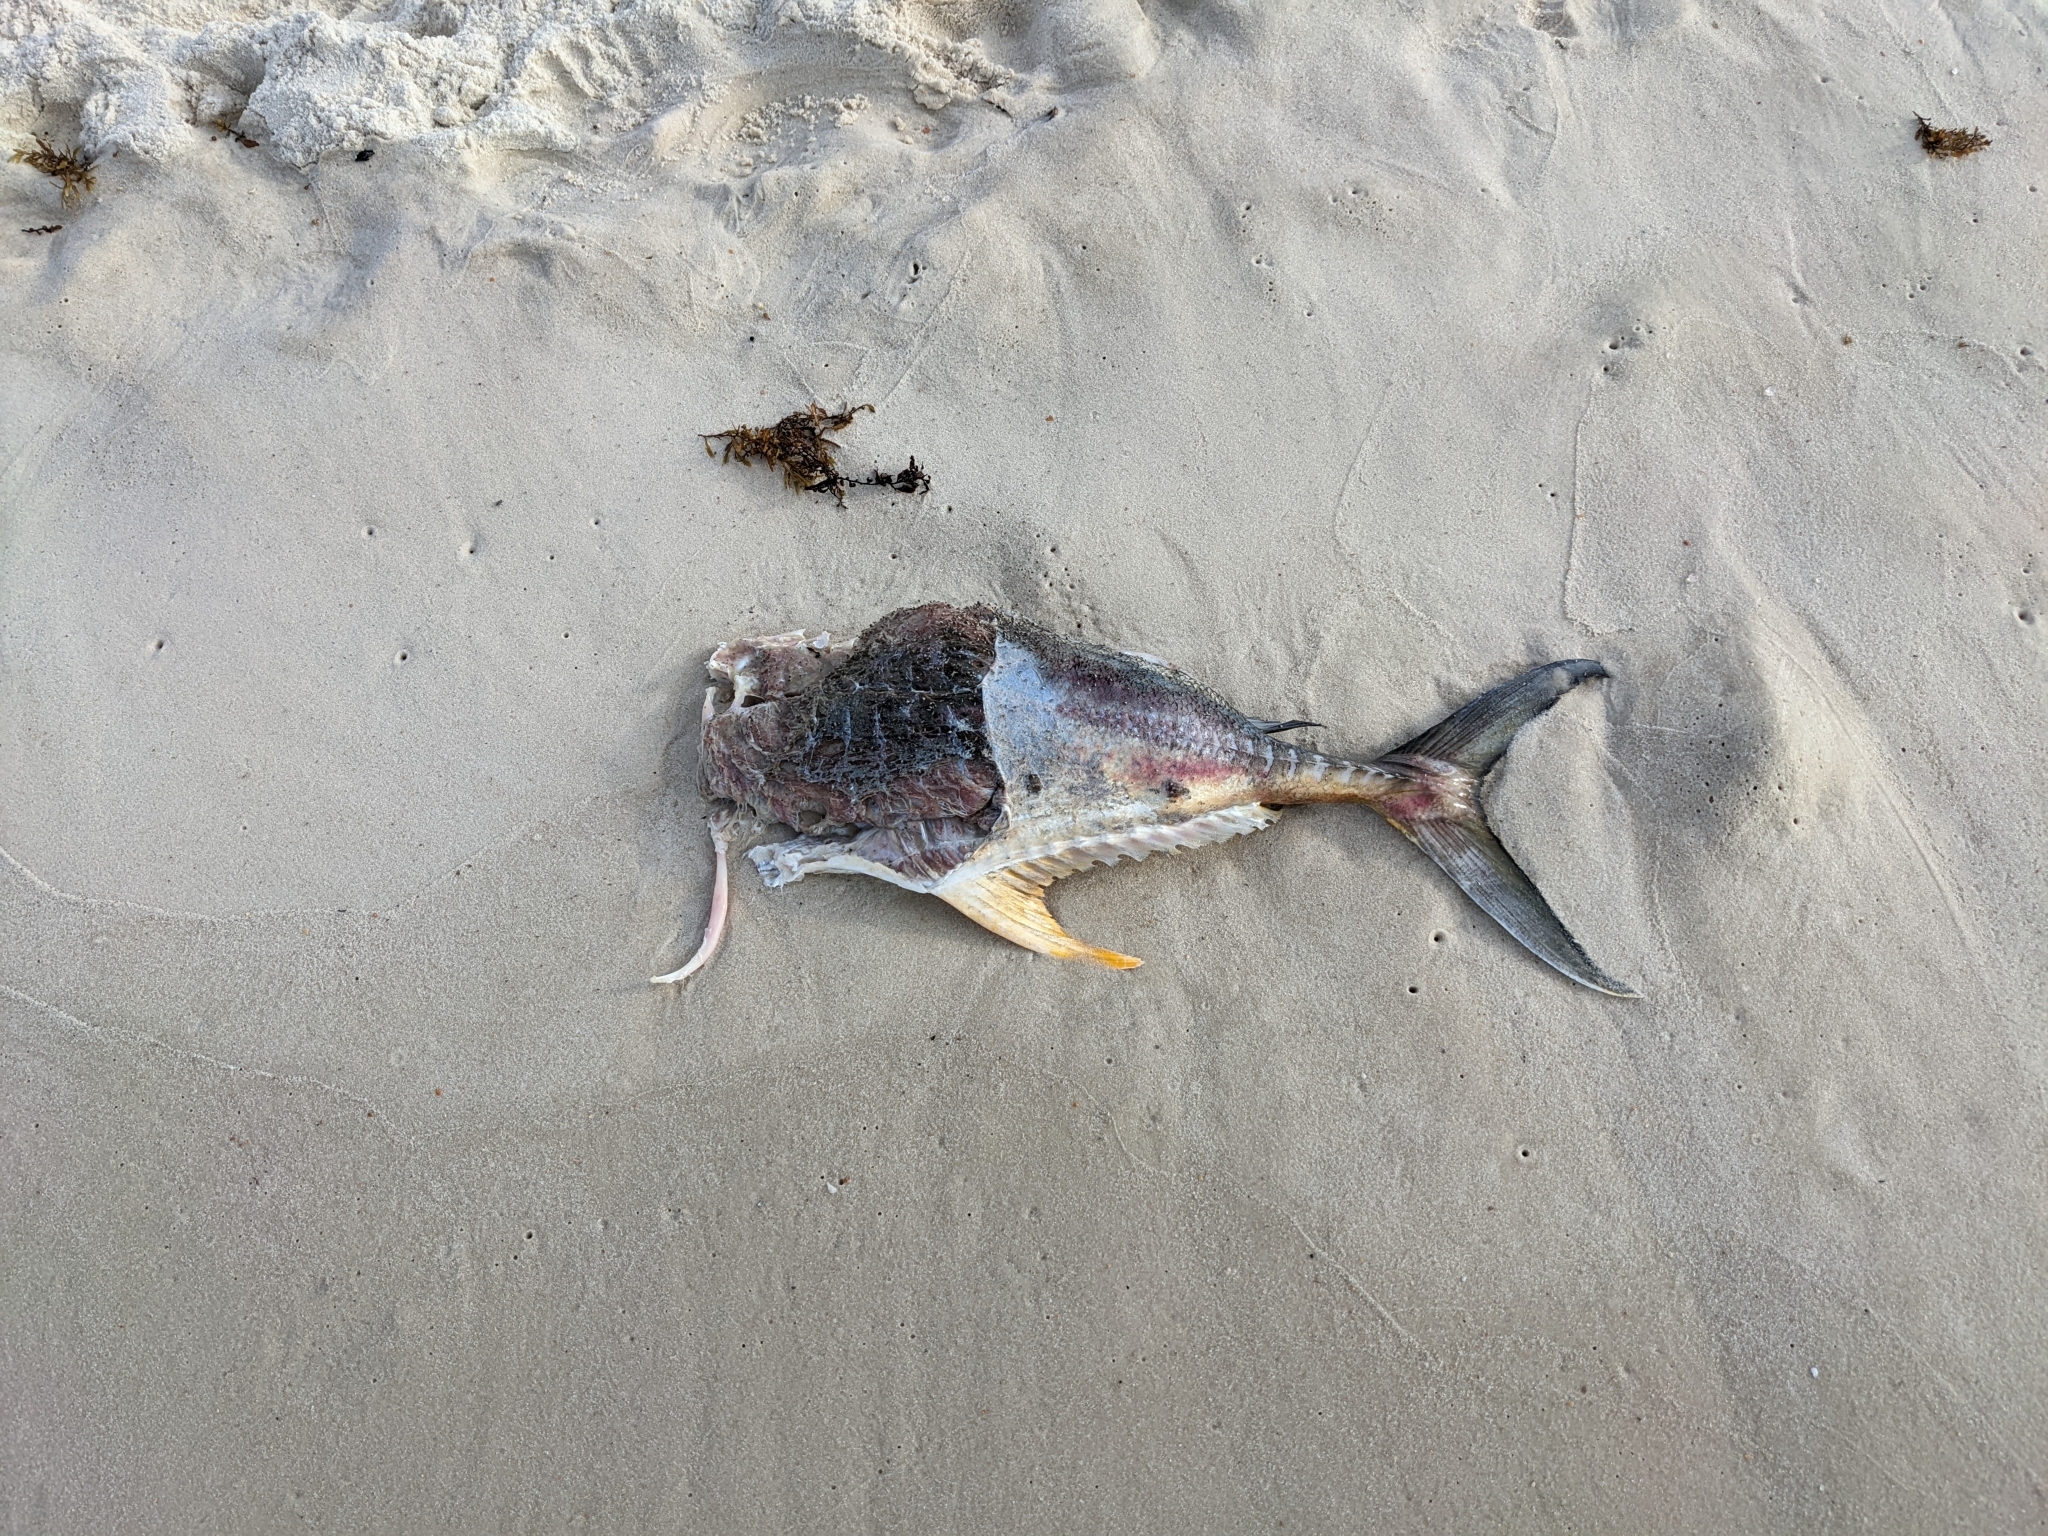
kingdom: Animalia
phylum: Chordata
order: Perciformes
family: Carangidae
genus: Caranx
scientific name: Caranx hippos
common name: Common jack
